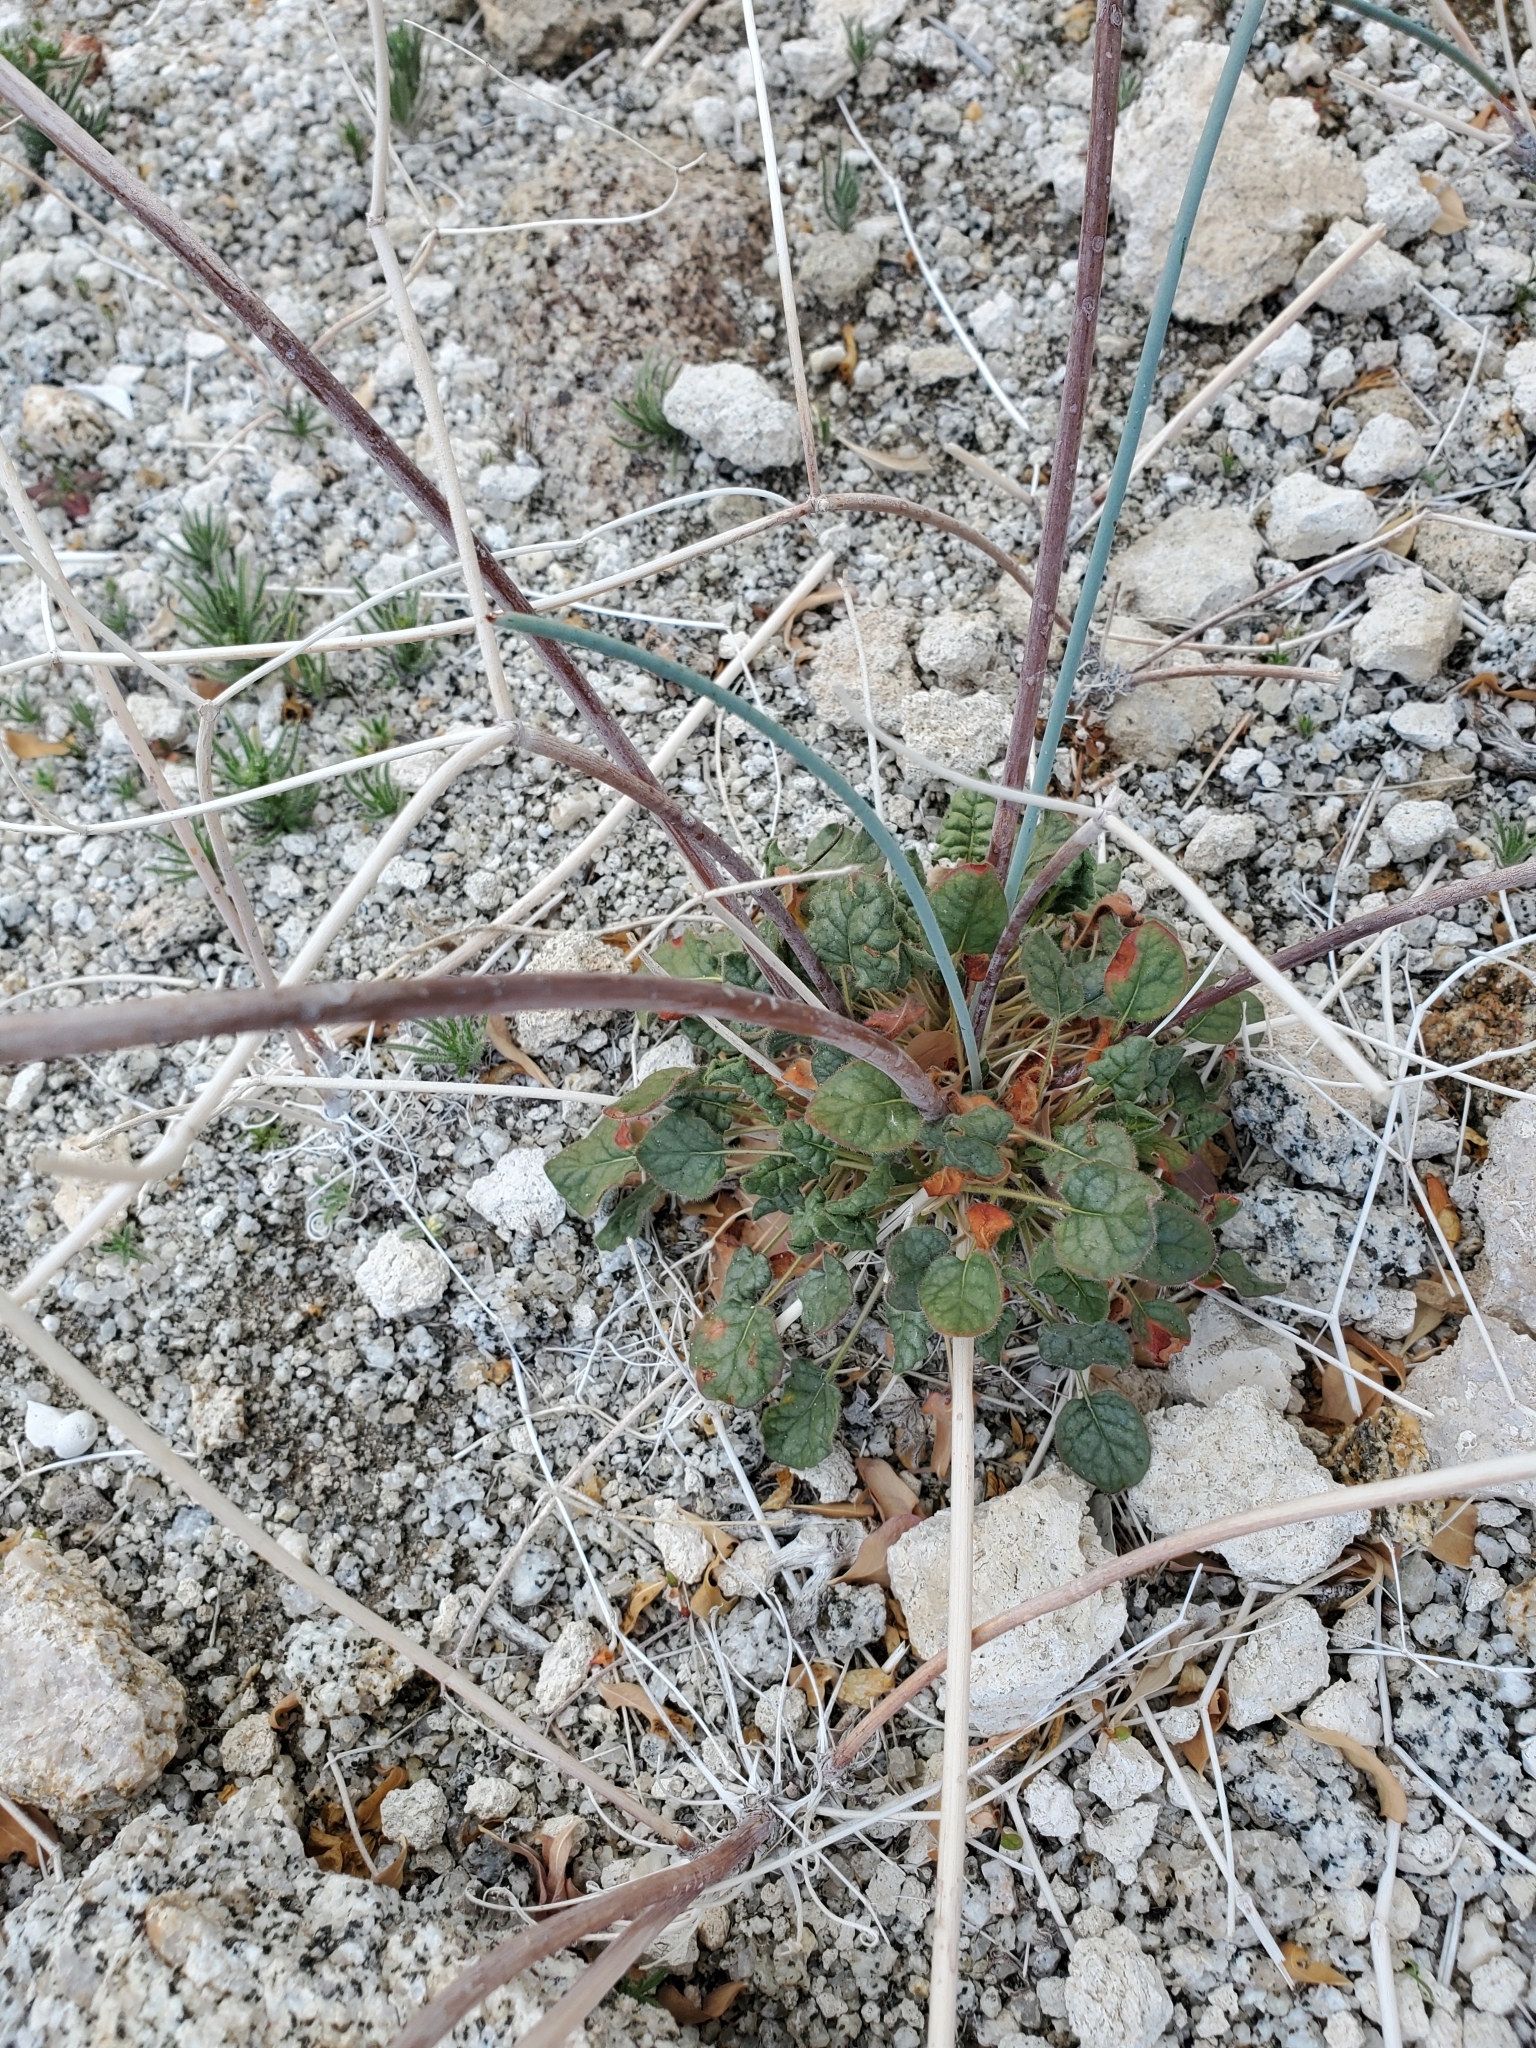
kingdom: Plantae
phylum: Tracheophyta
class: Magnoliopsida
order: Caryophyllales
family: Polygonaceae
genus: Eriogonum
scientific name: Eriogonum inflatum
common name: Desert trumpet
